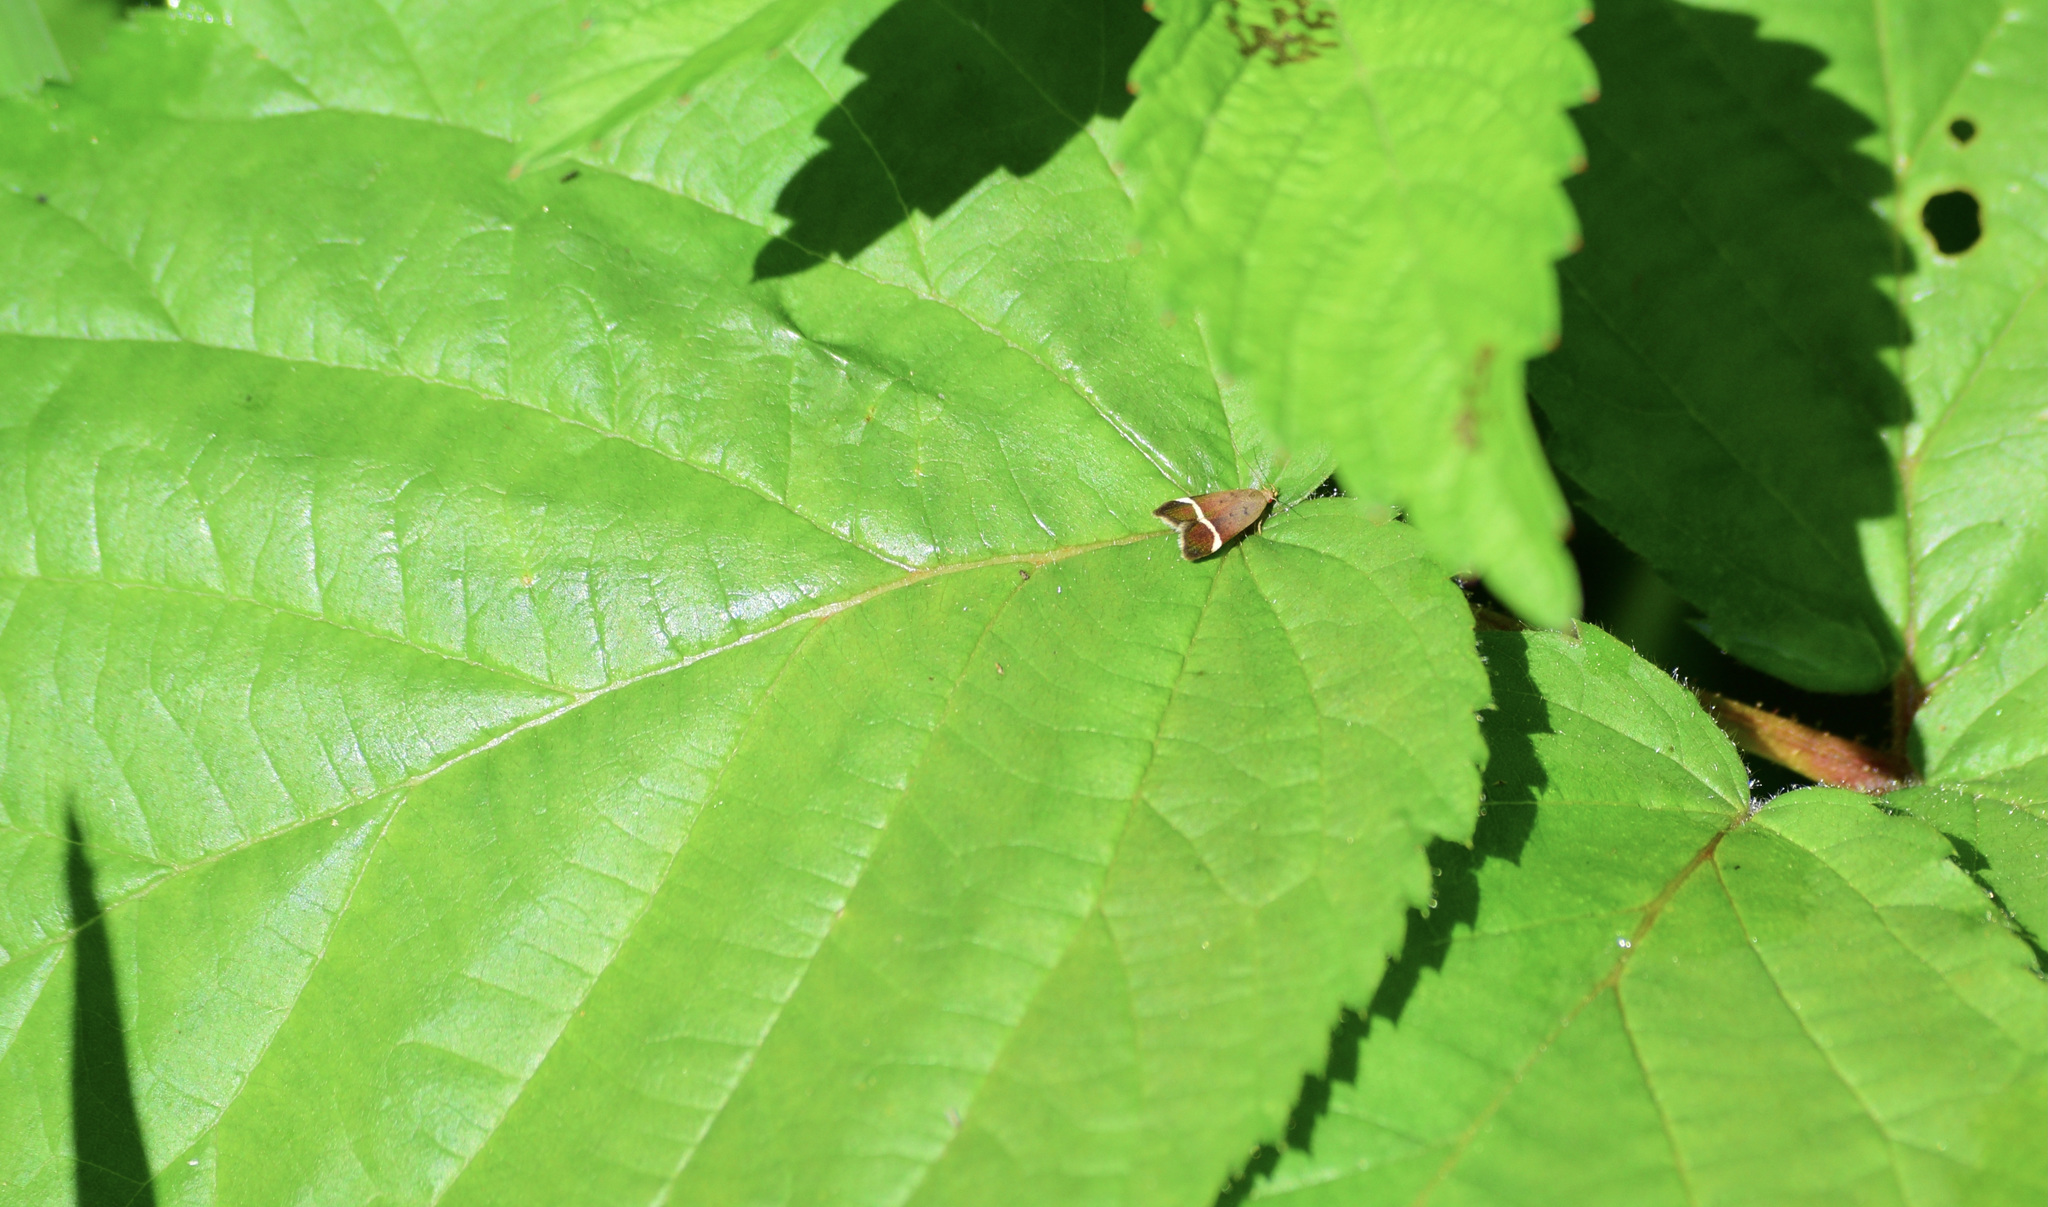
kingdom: Animalia
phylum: Arthropoda
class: Insecta
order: Lepidoptera
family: Gelechiidae
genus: Anacampsis
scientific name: Anacampsis agrimoniella
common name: Agrimony anacampsis moth
